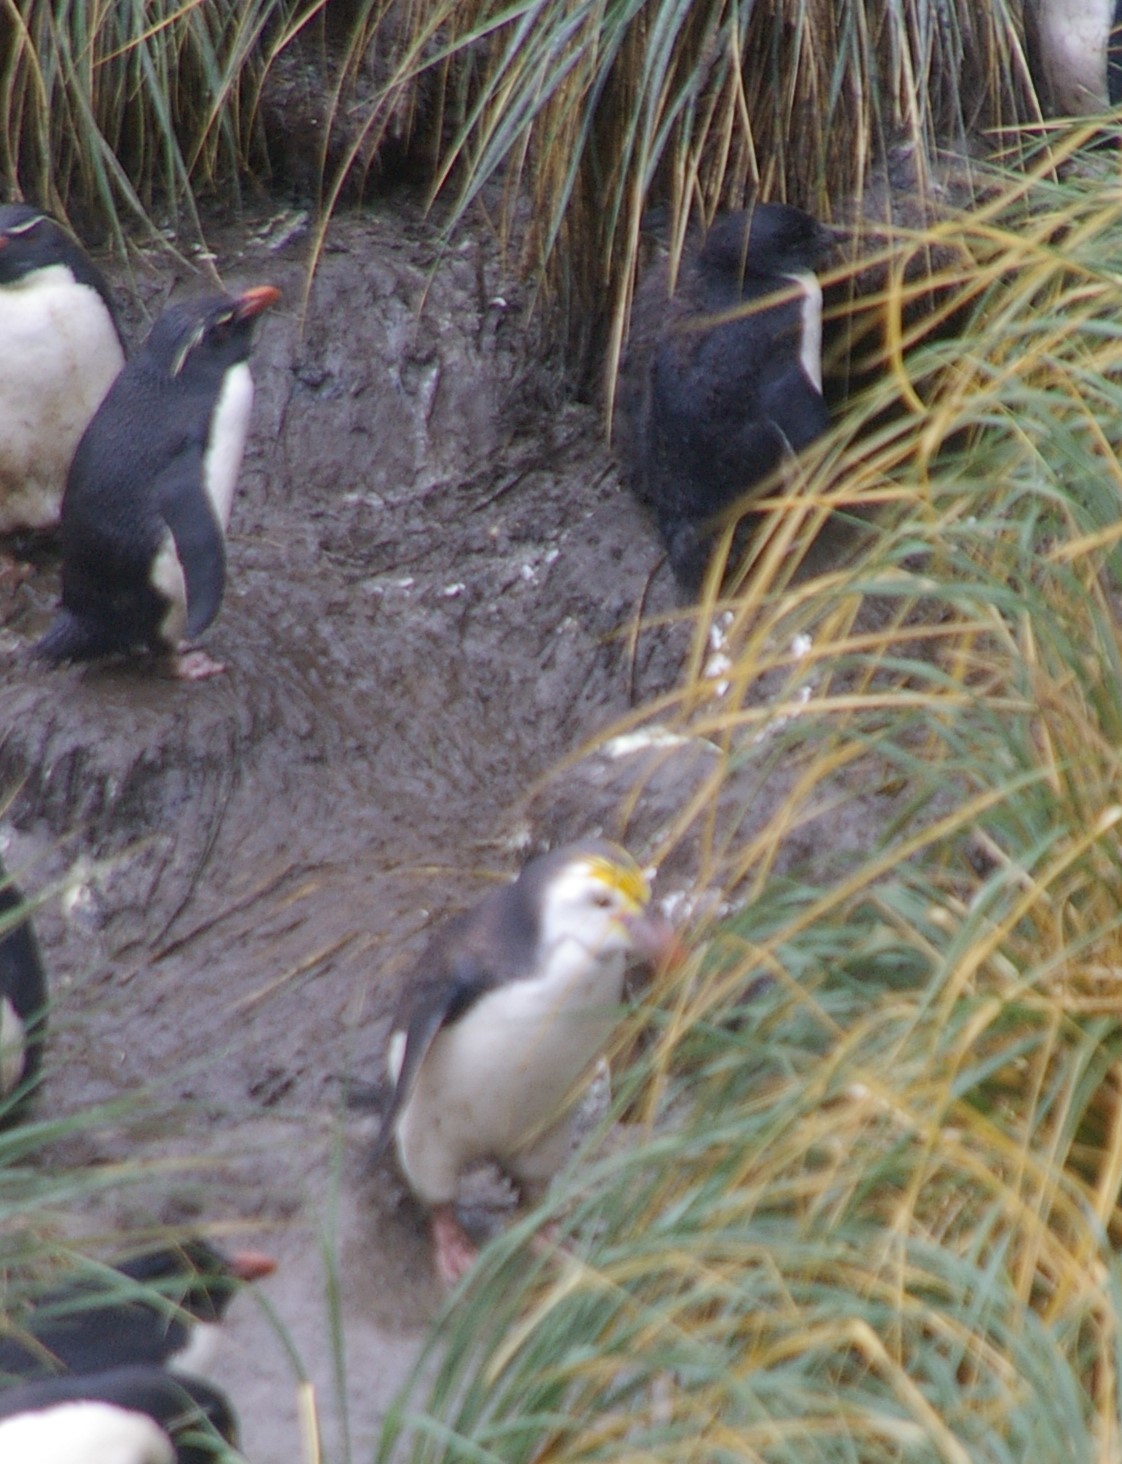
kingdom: Animalia
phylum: Chordata
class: Aves
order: Sphenisciformes
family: Spheniscidae
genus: Eudyptes
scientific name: Eudyptes schlegeli
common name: Royal penguin
